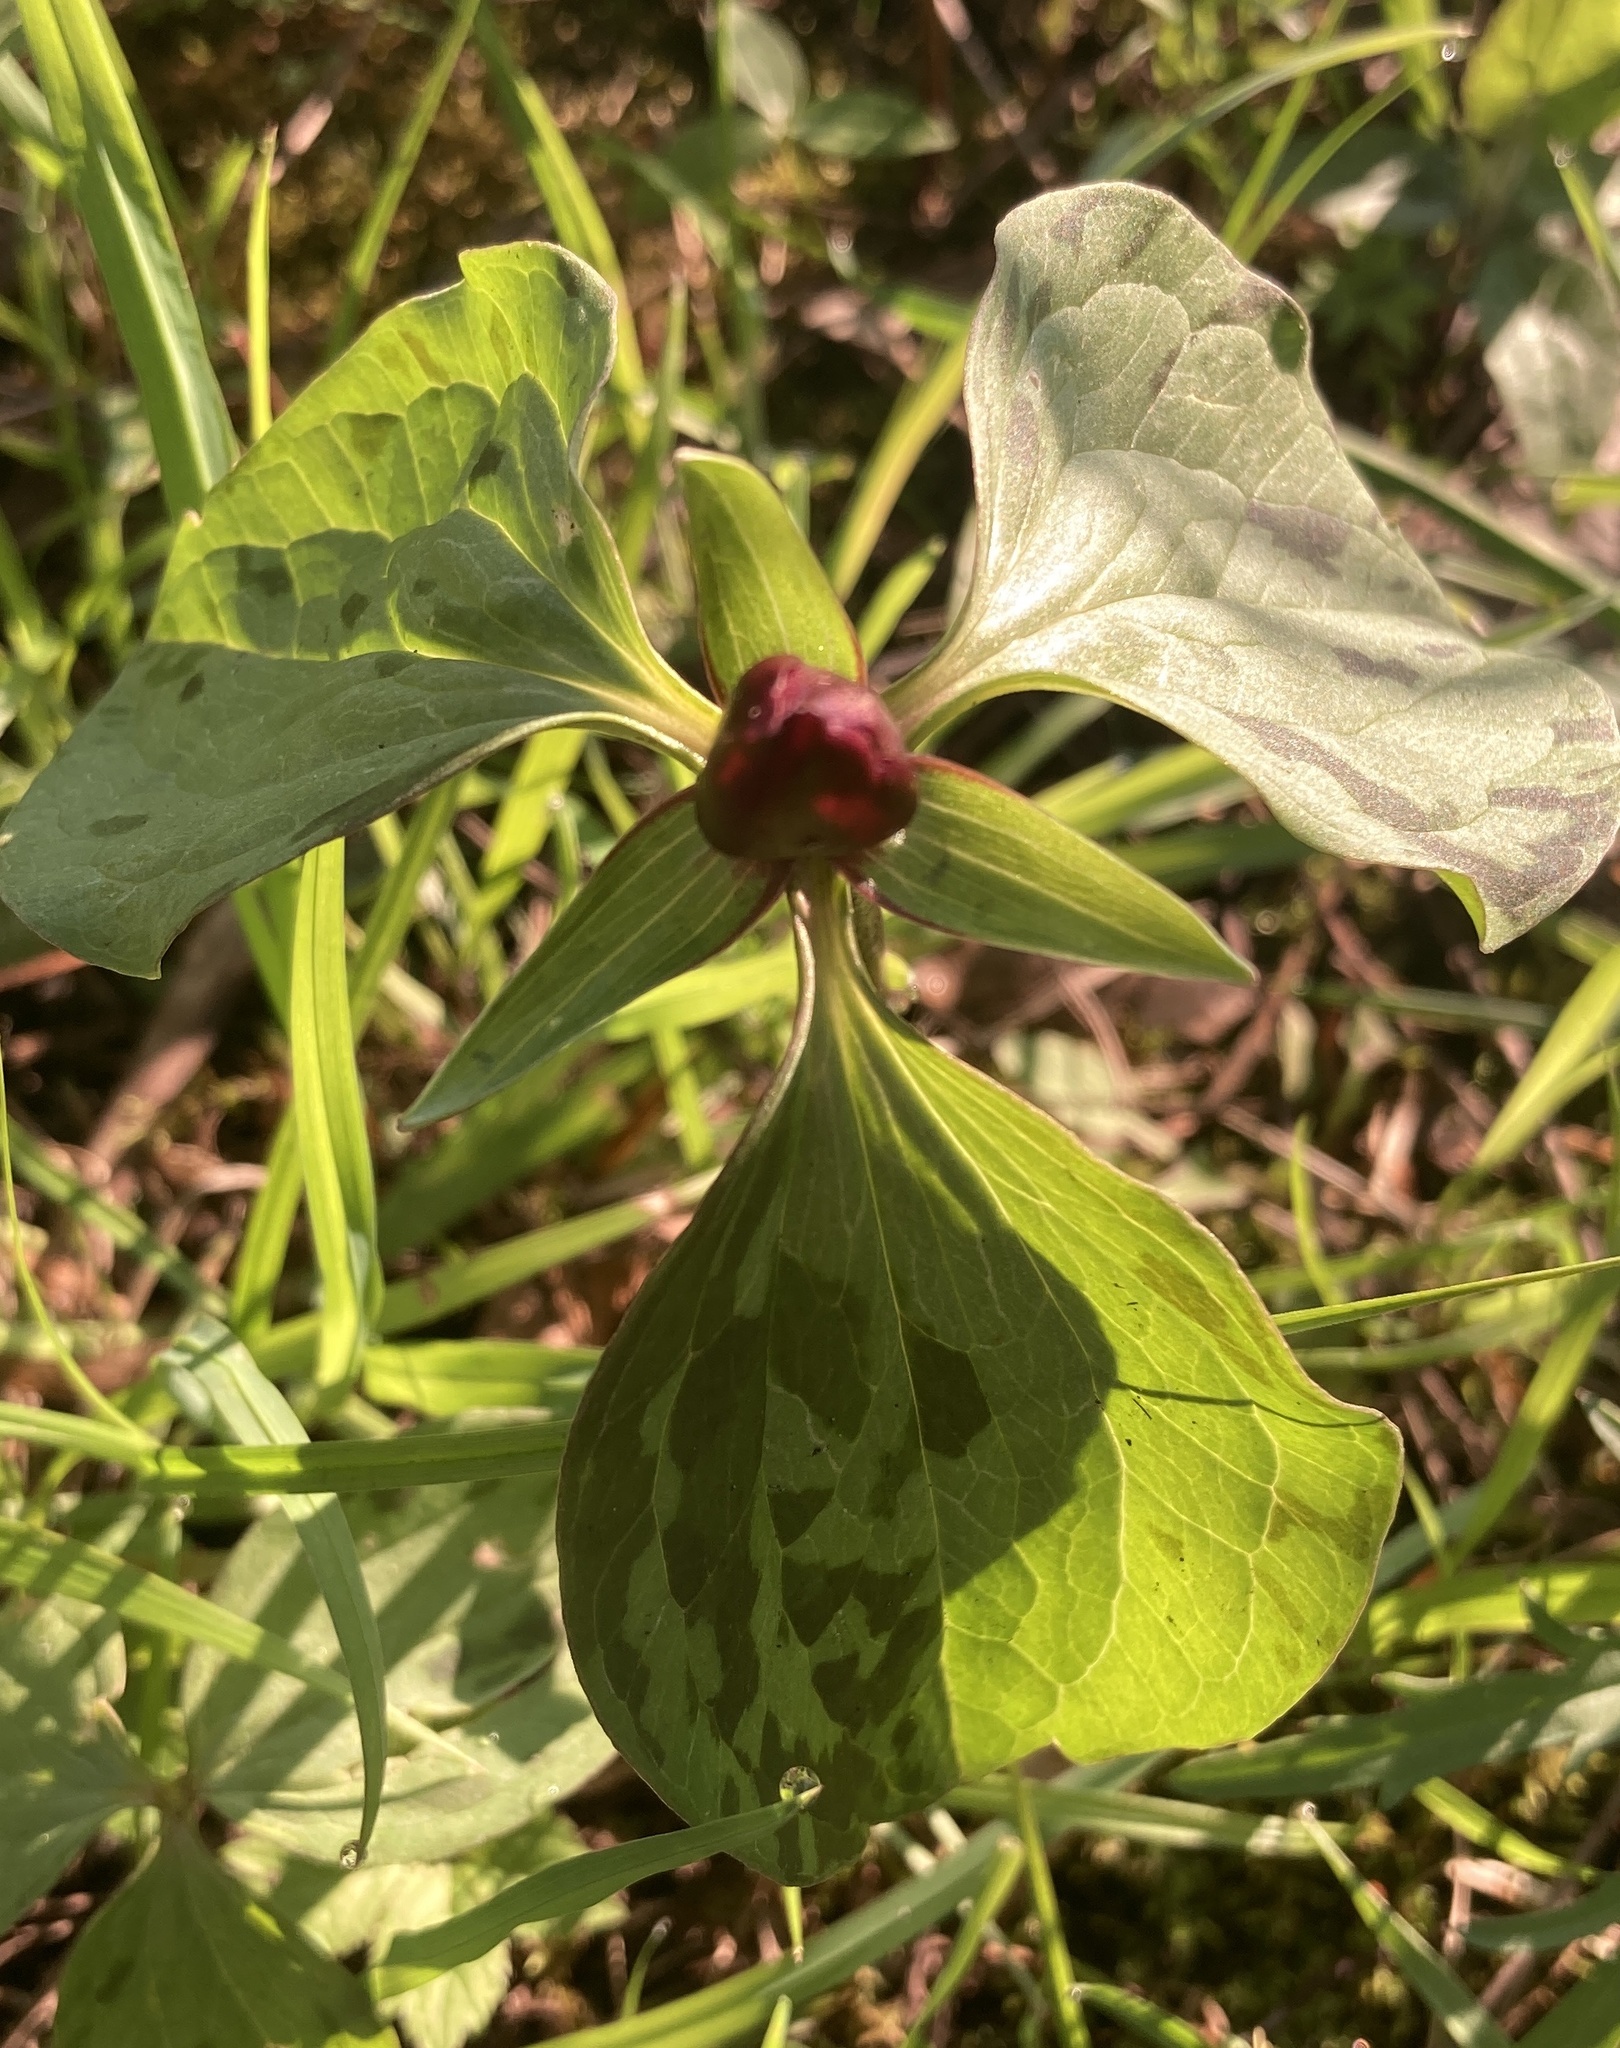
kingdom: Plantae
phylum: Tracheophyta
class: Liliopsida
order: Liliales
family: Melanthiaceae
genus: Trillium
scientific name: Trillium recurvatum
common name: Bloody butcher
